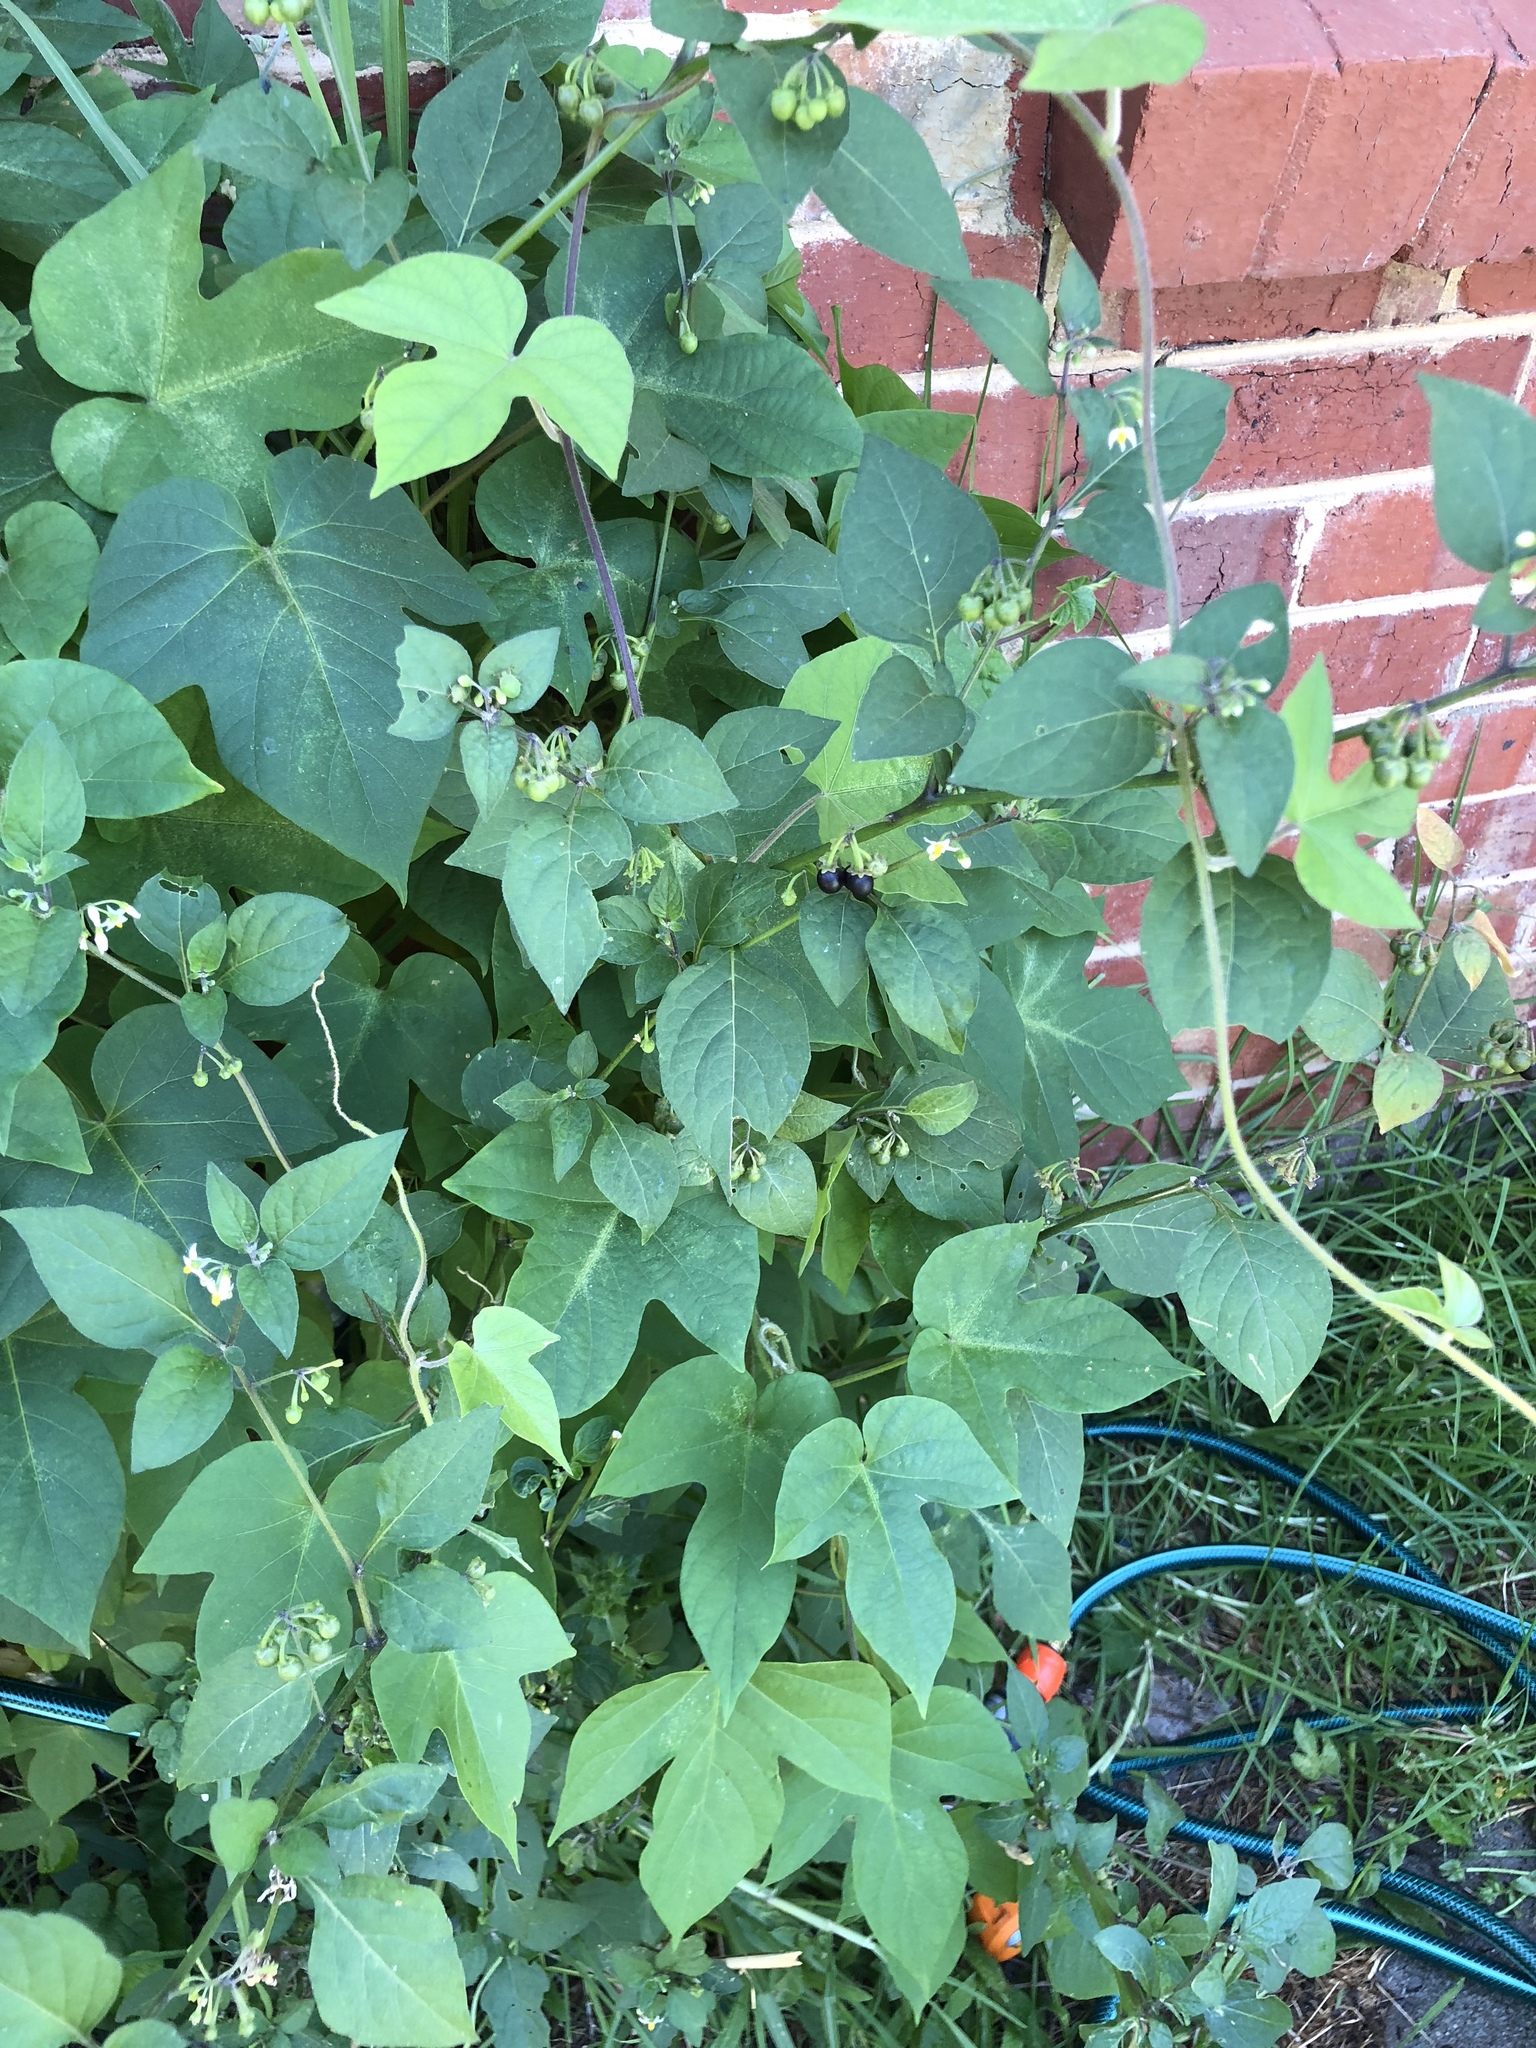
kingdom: Plantae
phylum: Tracheophyta
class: Magnoliopsida
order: Solanales
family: Solanaceae
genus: Solanum
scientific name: Solanum nigrum
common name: Black nightshade
